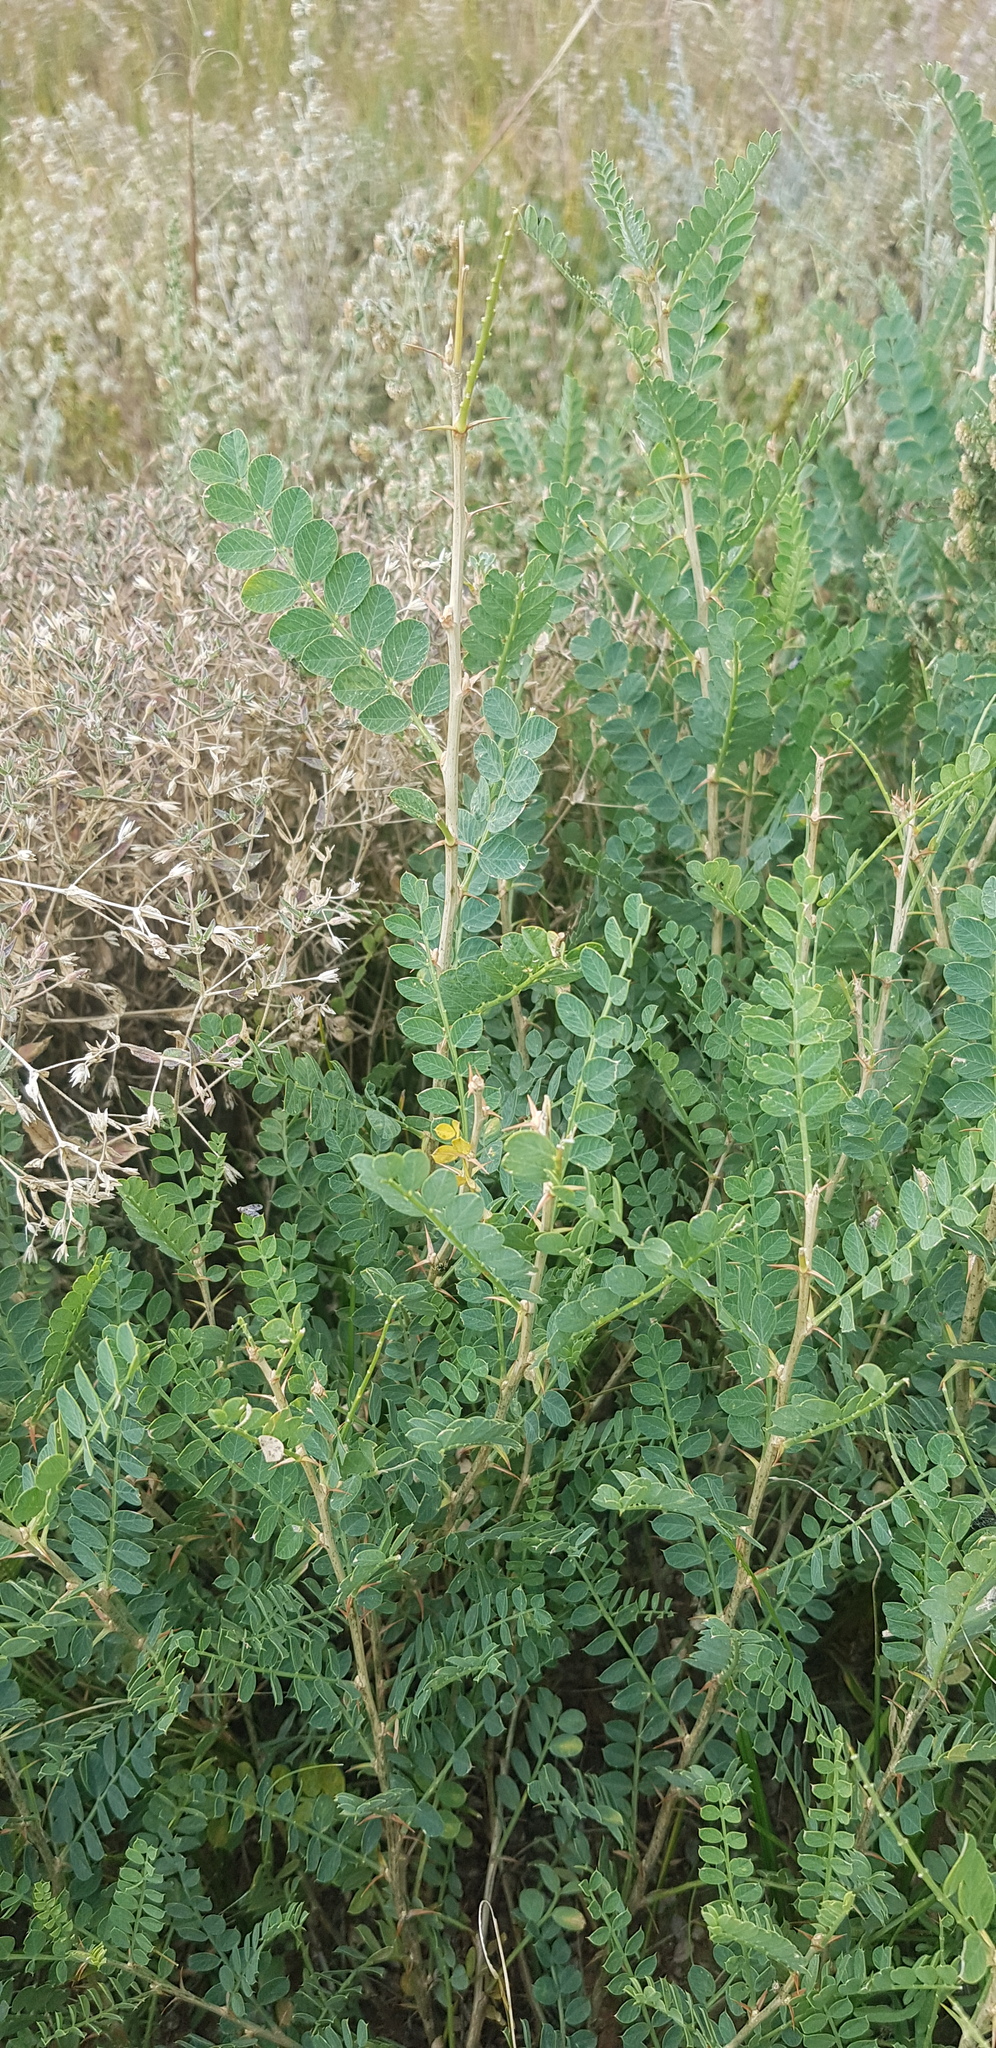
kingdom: Plantae
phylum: Tracheophyta
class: Magnoliopsida
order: Fabales
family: Fabaceae
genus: Caragana
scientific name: Caragana microphylla
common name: Littleleaf peashrub
